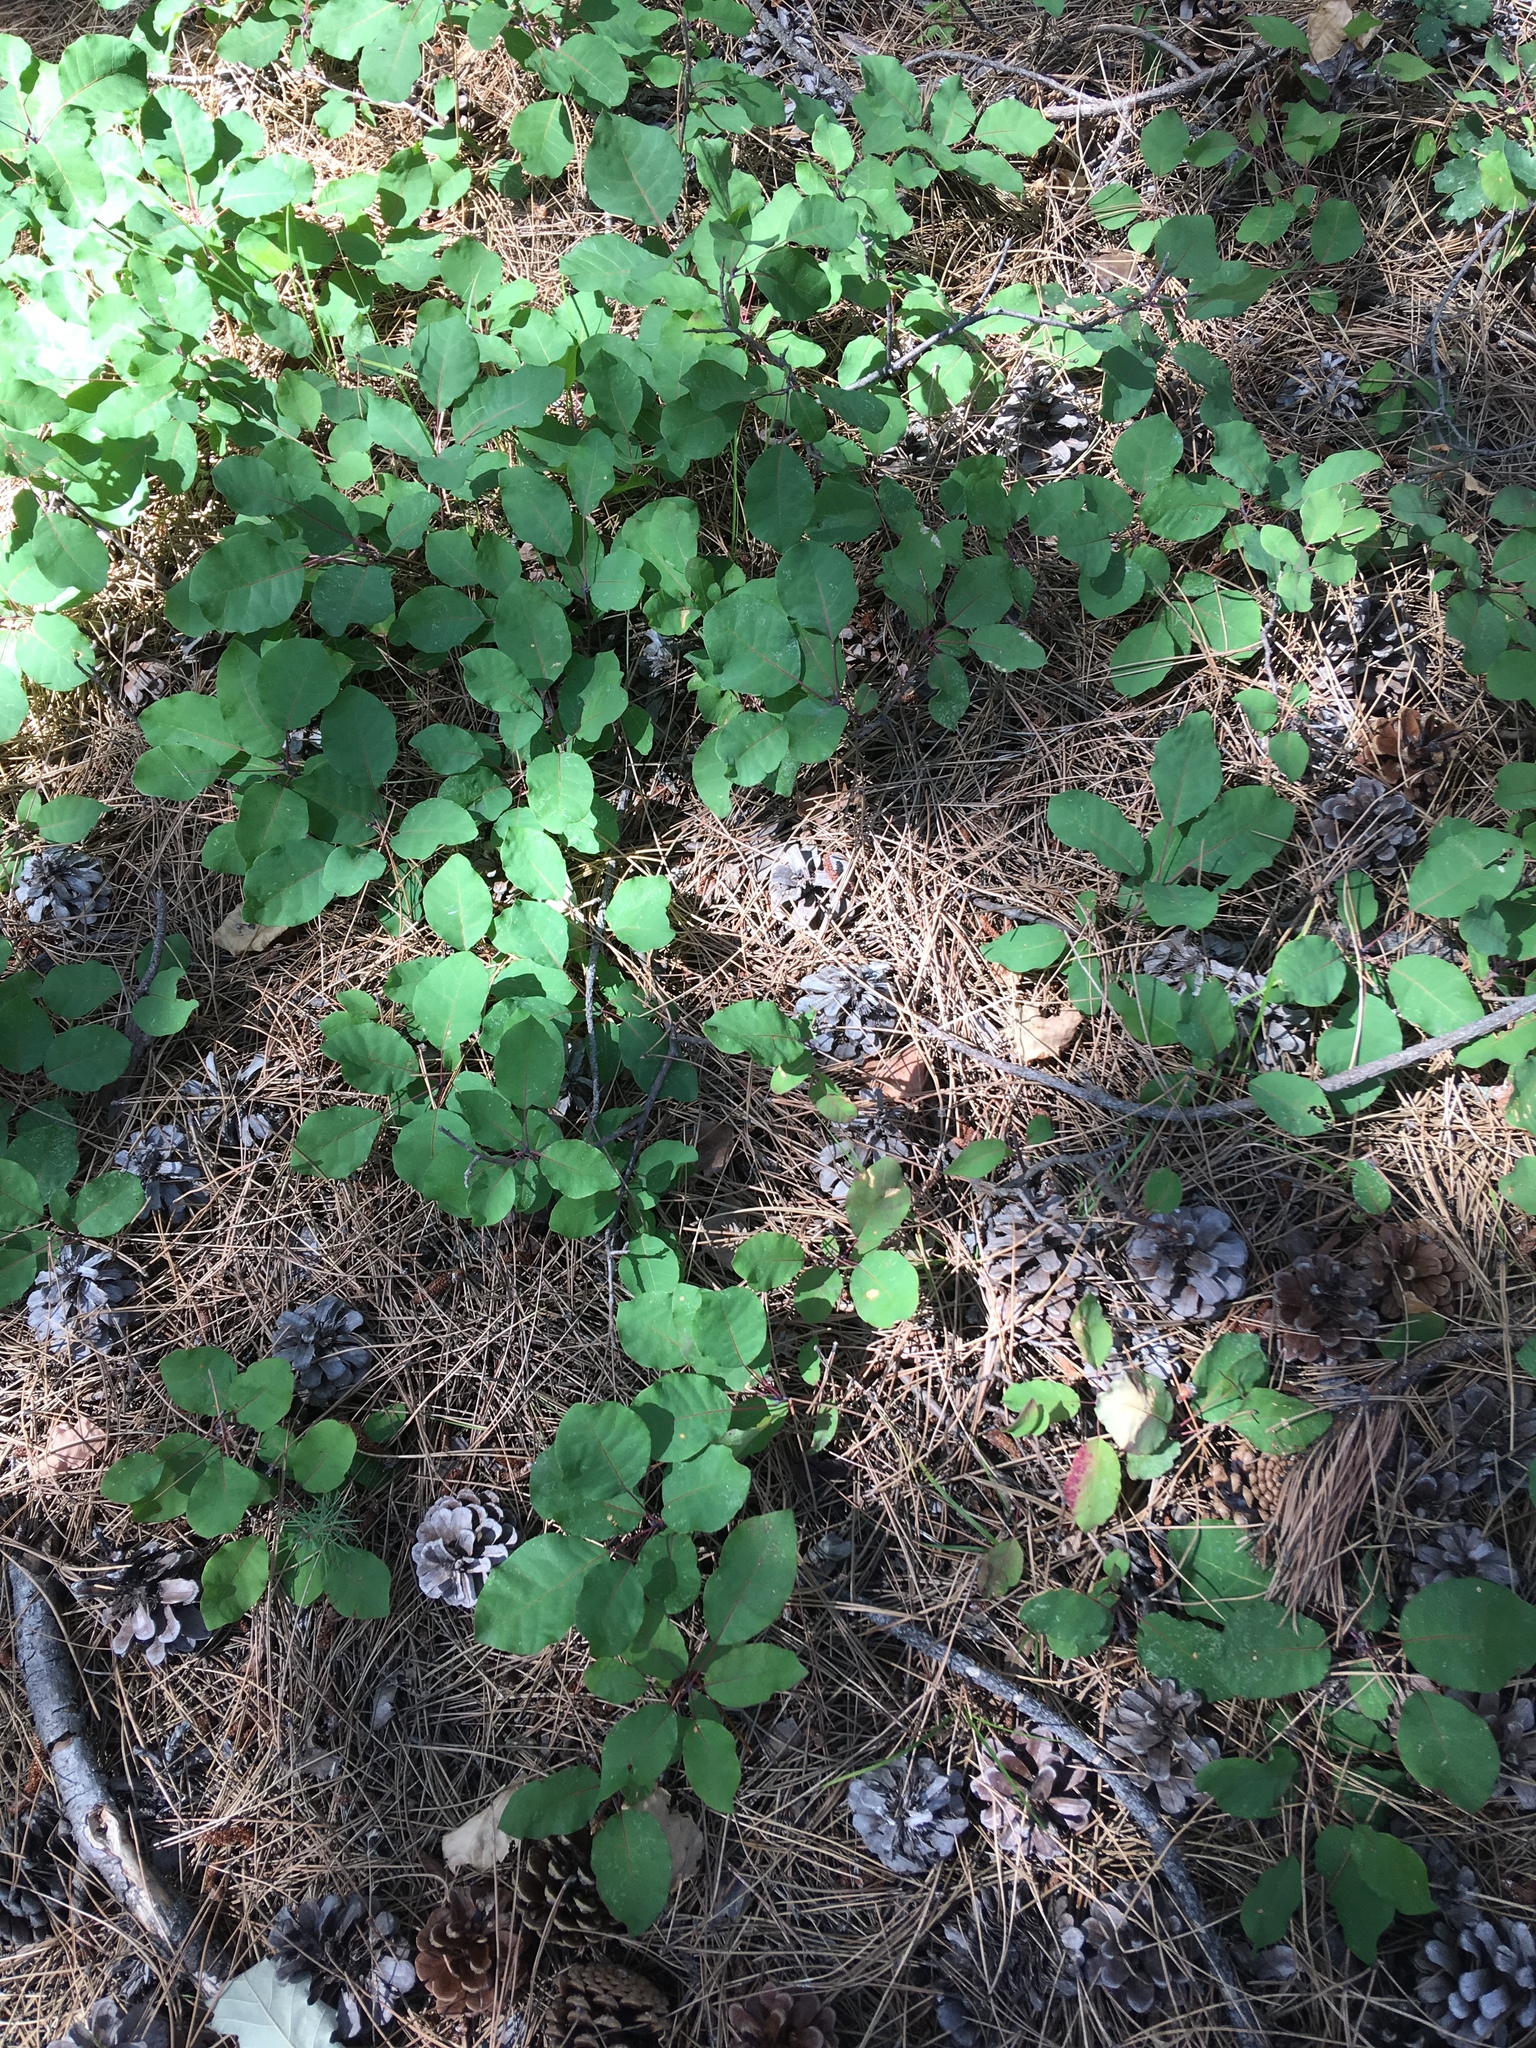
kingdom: Plantae
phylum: Tracheophyta
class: Magnoliopsida
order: Sapindales
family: Anacardiaceae
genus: Cotinus
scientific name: Cotinus coggygria
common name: Smoke-tree
